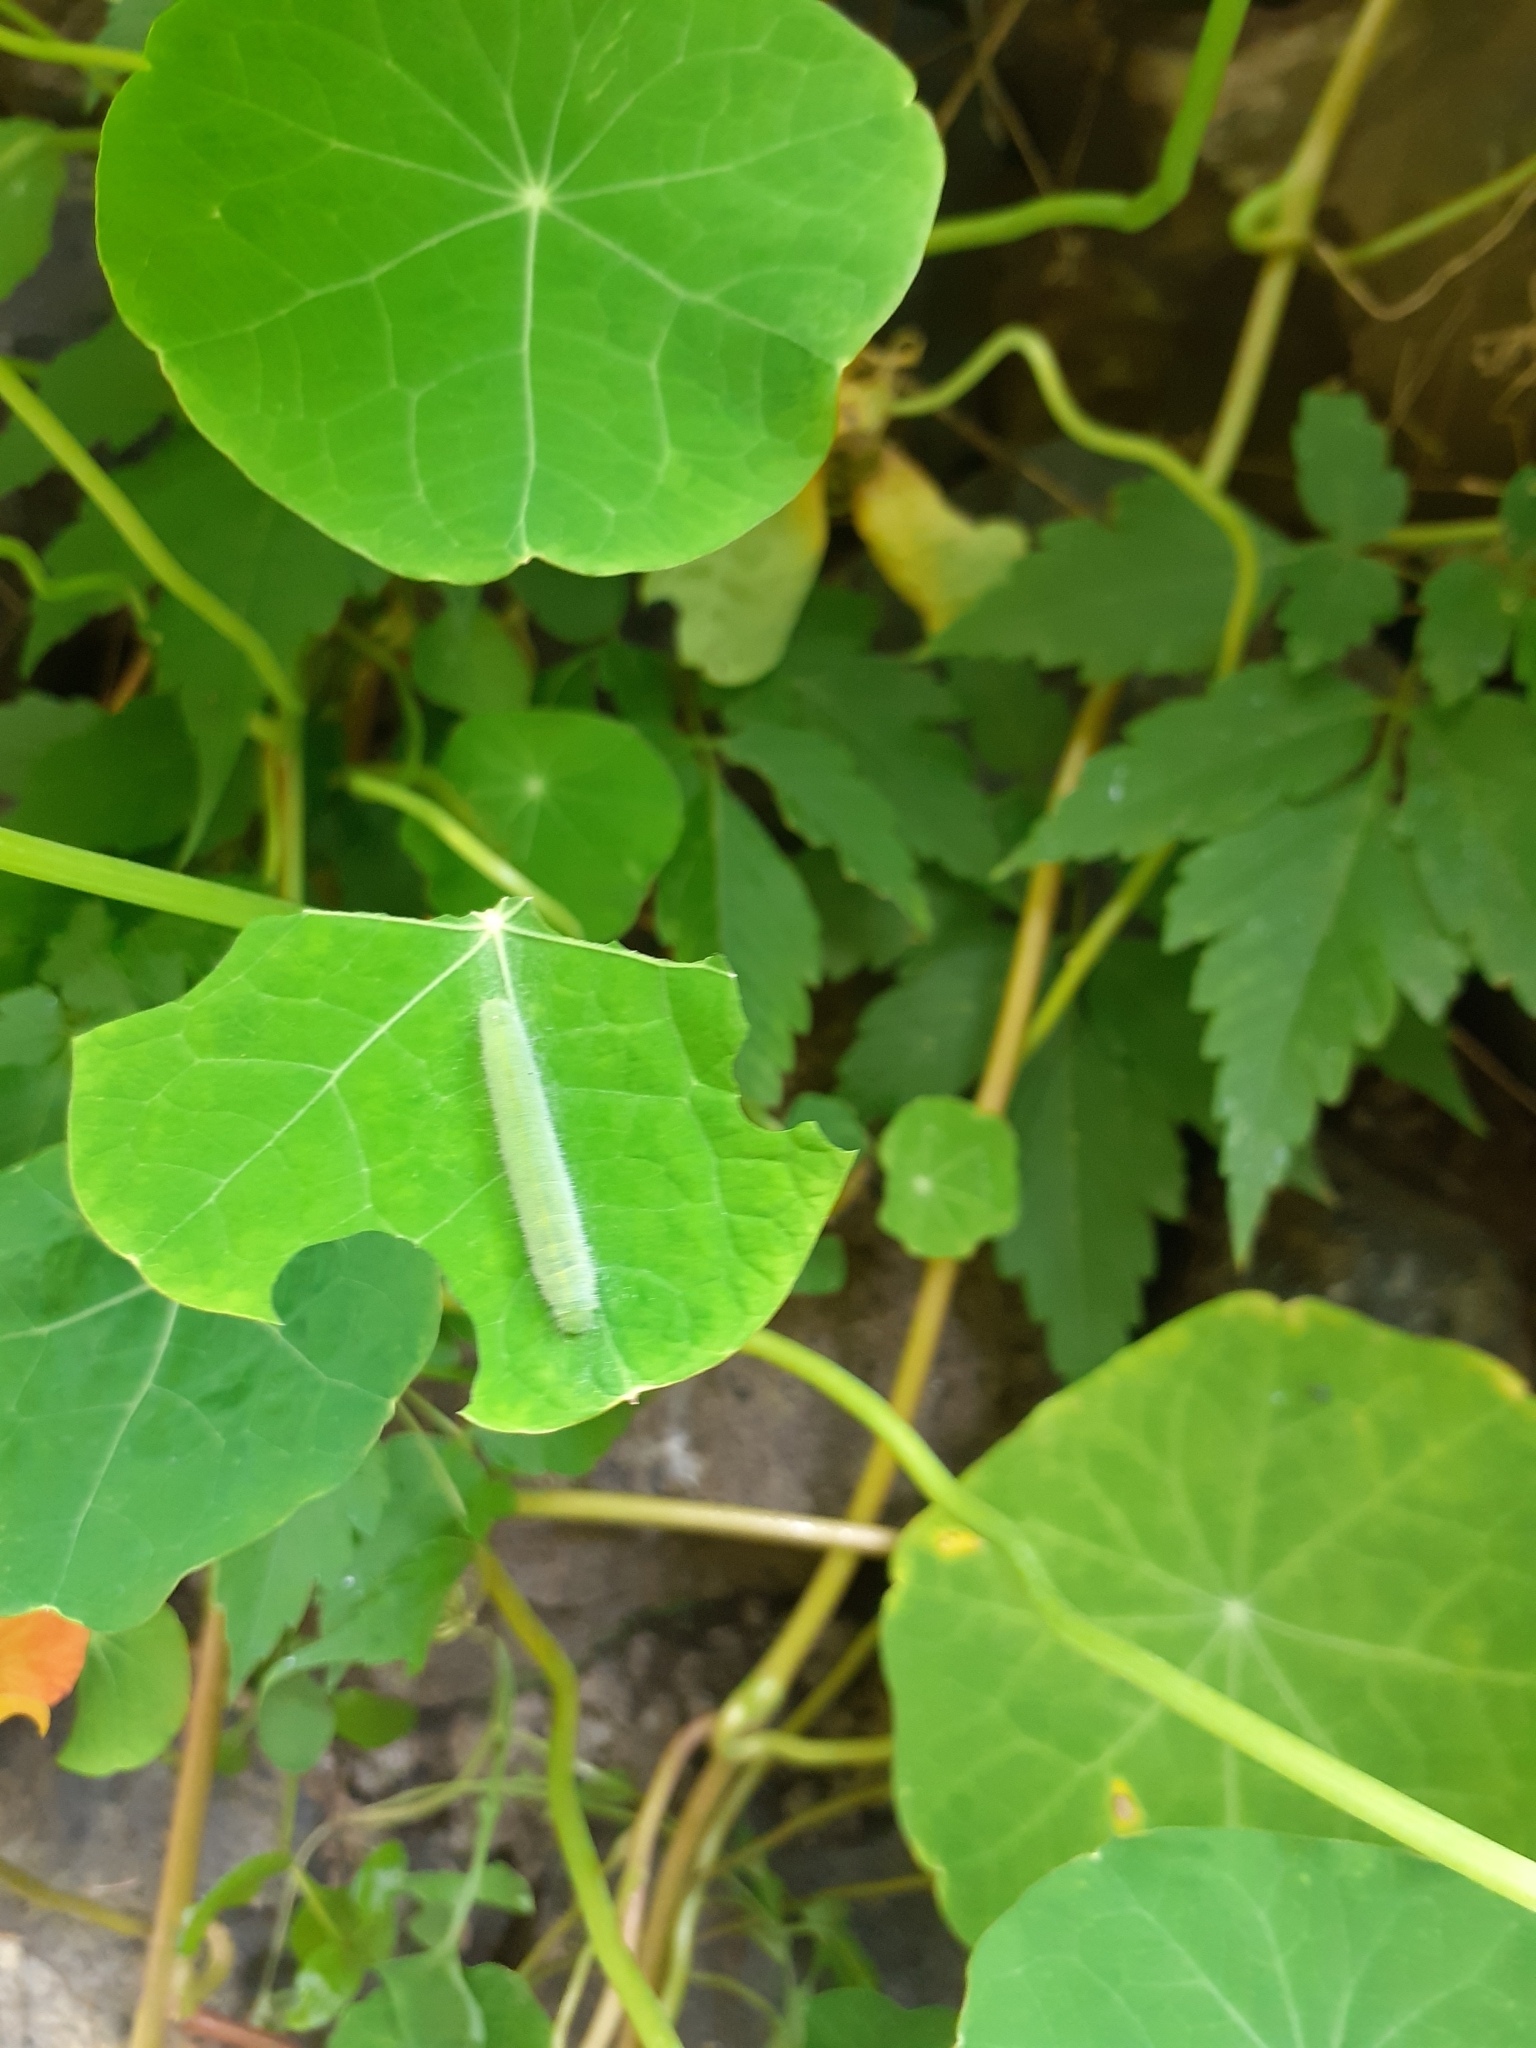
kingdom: Animalia
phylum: Arthropoda
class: Insecta
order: Lepidoptera
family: Pieridae
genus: Pieris
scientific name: Pieris rapae
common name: Small white
